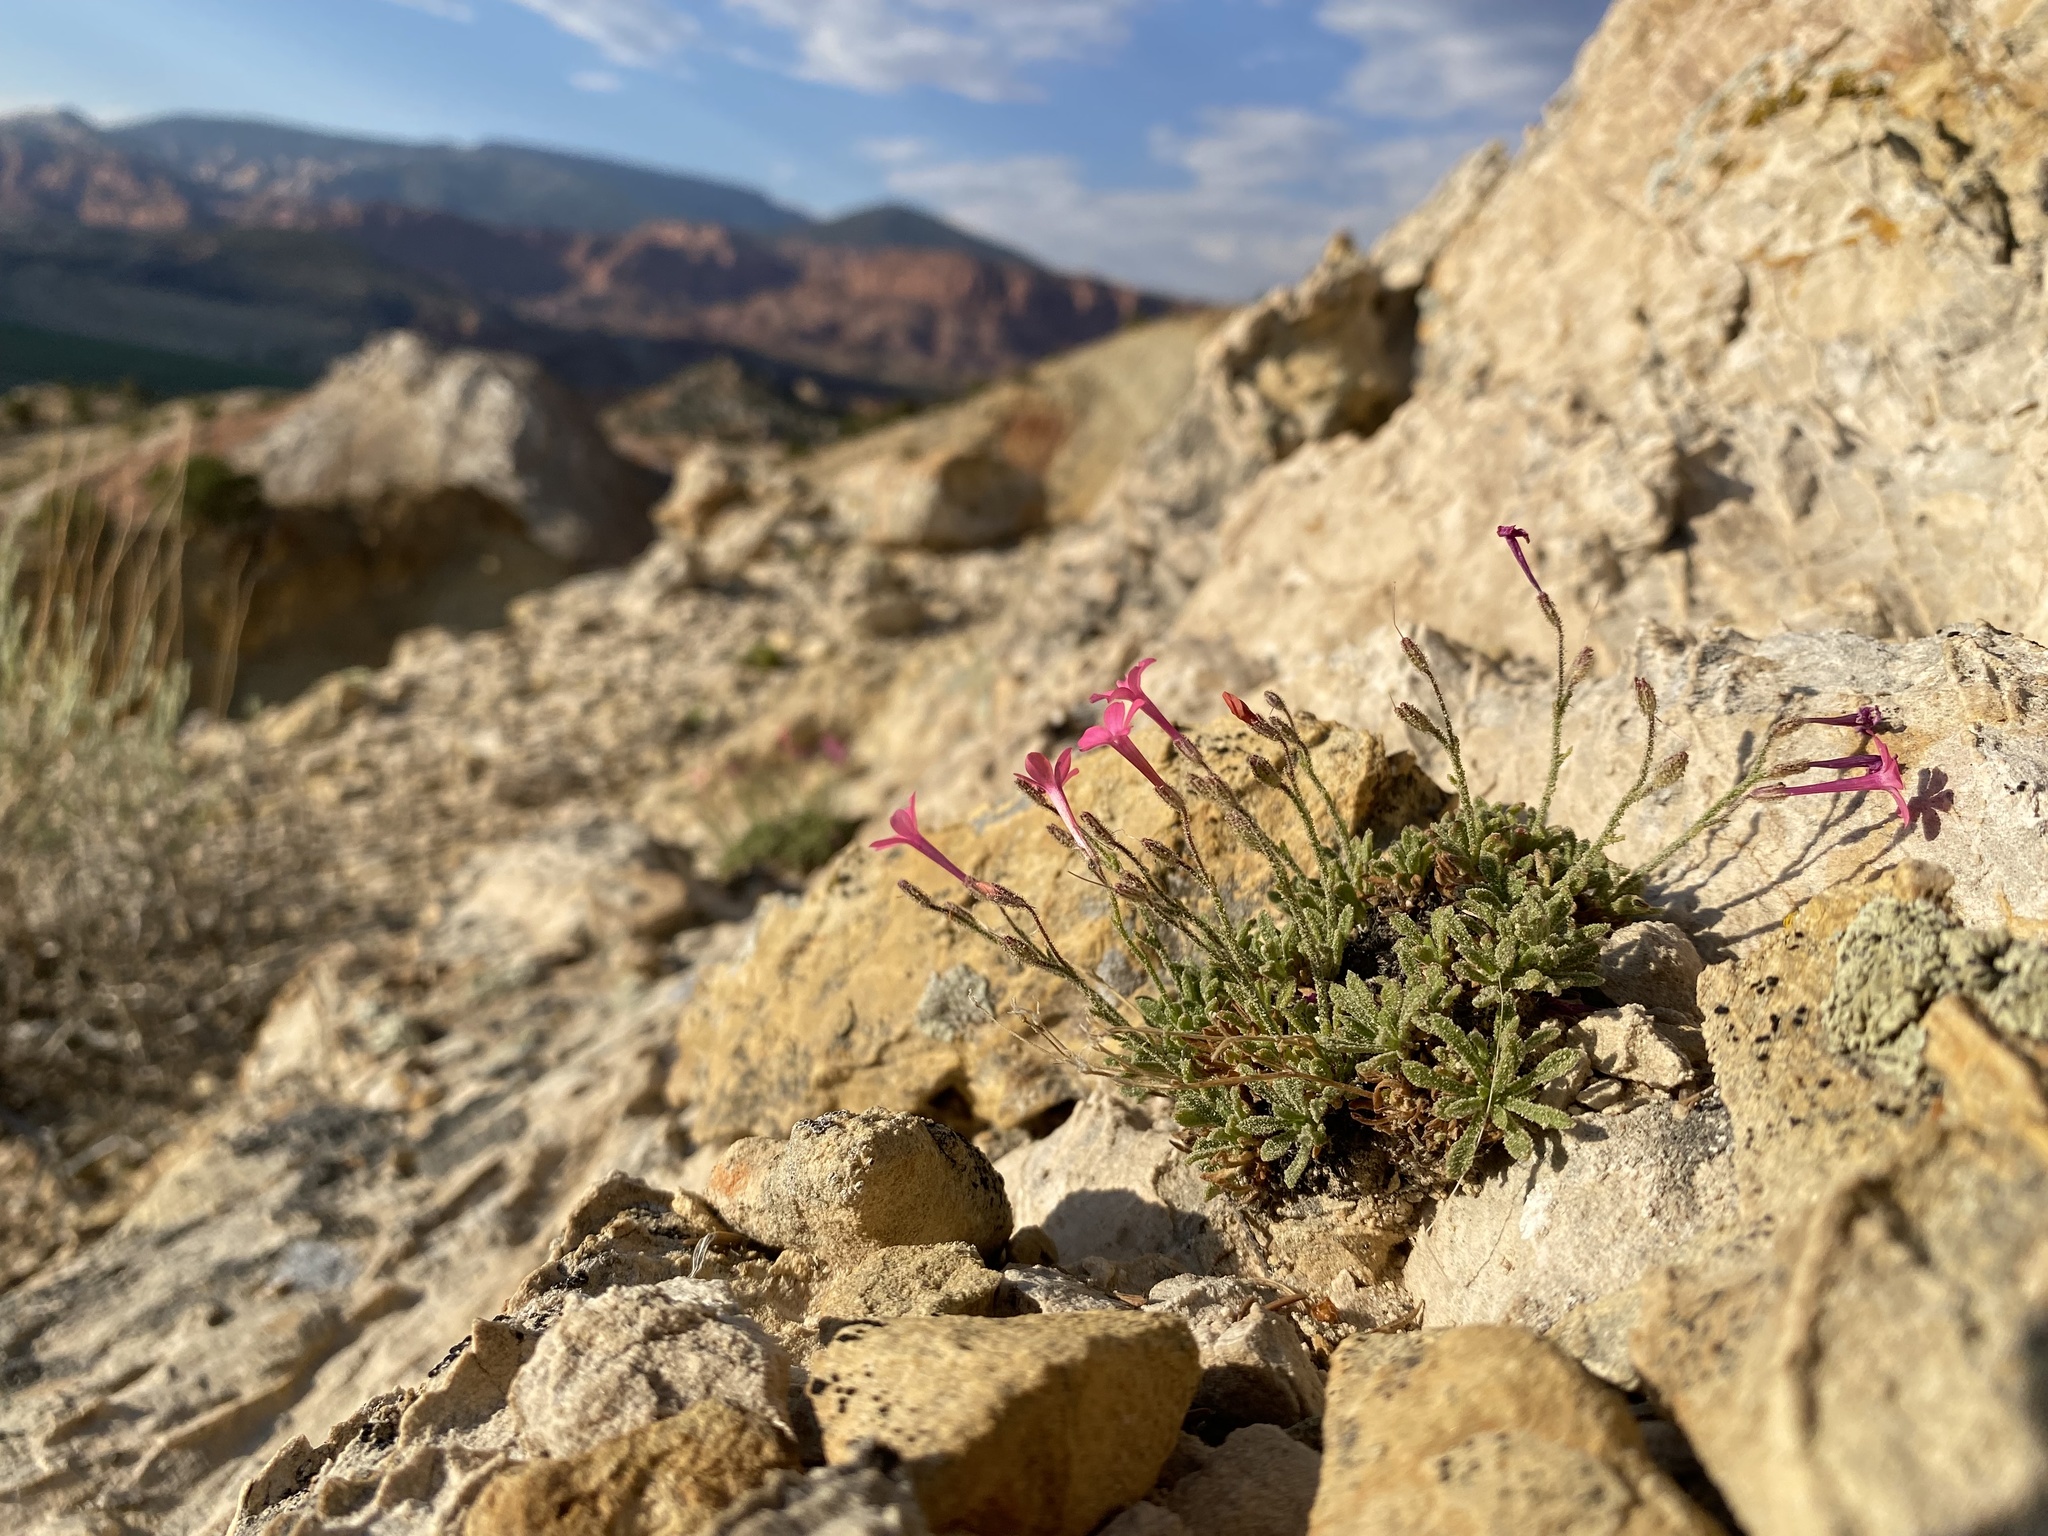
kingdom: Plantae
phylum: Tracheophyta
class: Magnoliopsida
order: Ericales
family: Polemoniaceae
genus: Aliciella
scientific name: Aliciella caespitosa
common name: Rabbit valley gilia
